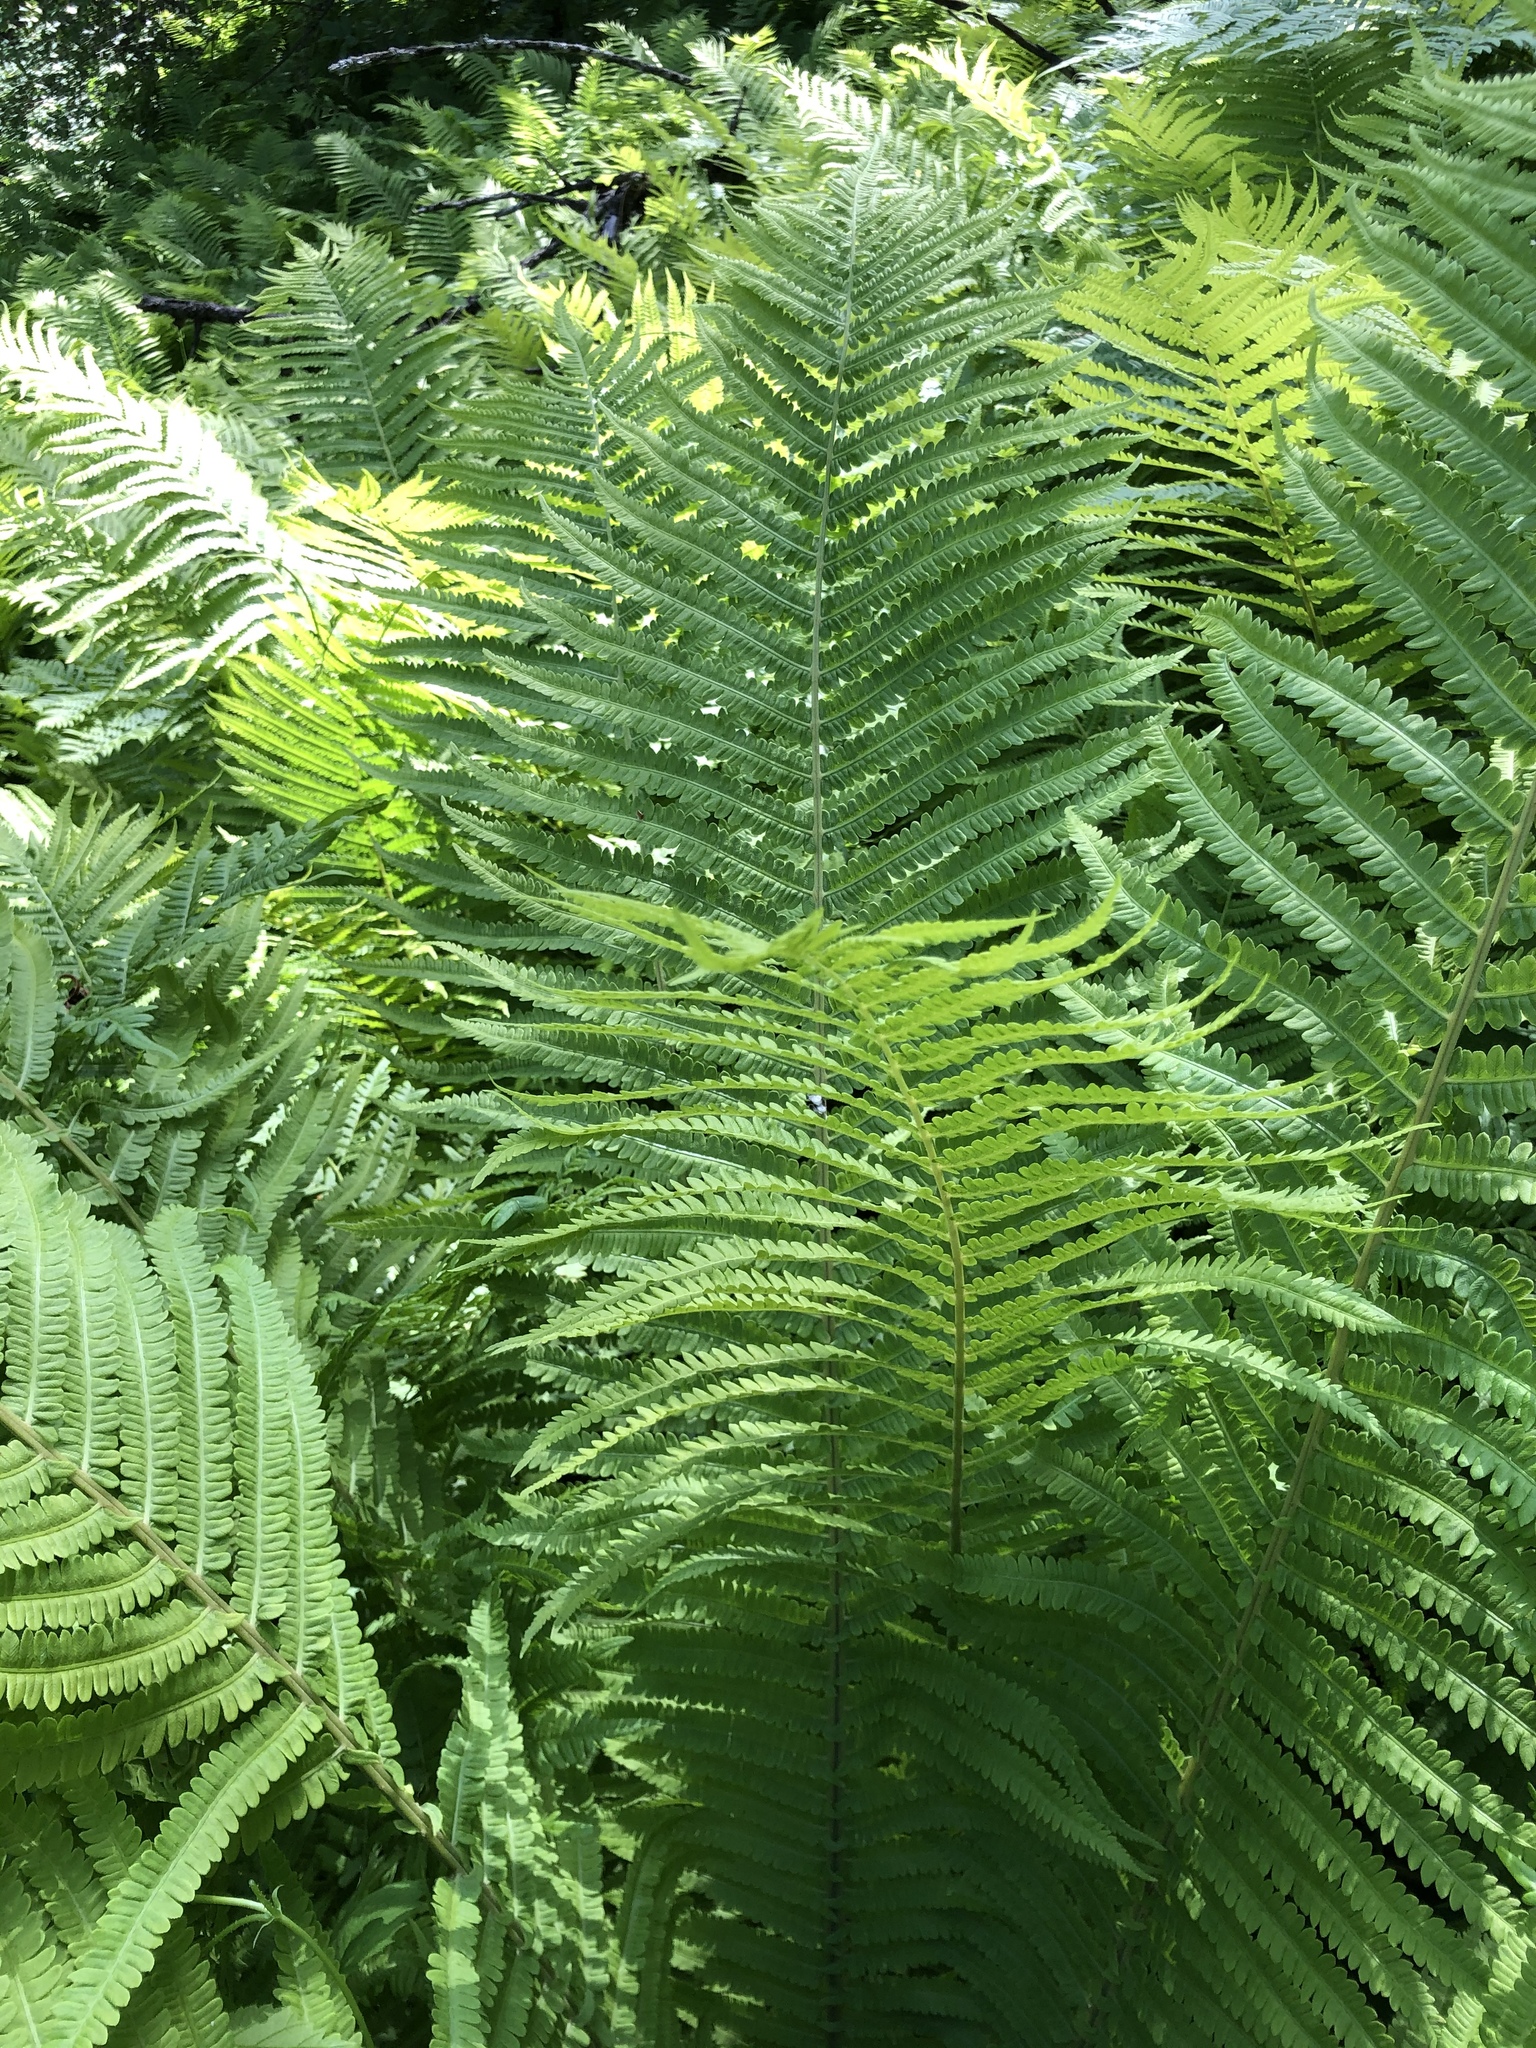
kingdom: Plantae
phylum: Tracheophyta
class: Polypodiopsida
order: Polypodiales
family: Onocleaceae
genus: Matteuccia
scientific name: Matteuccia struthiopteris
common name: Ostrich fern
